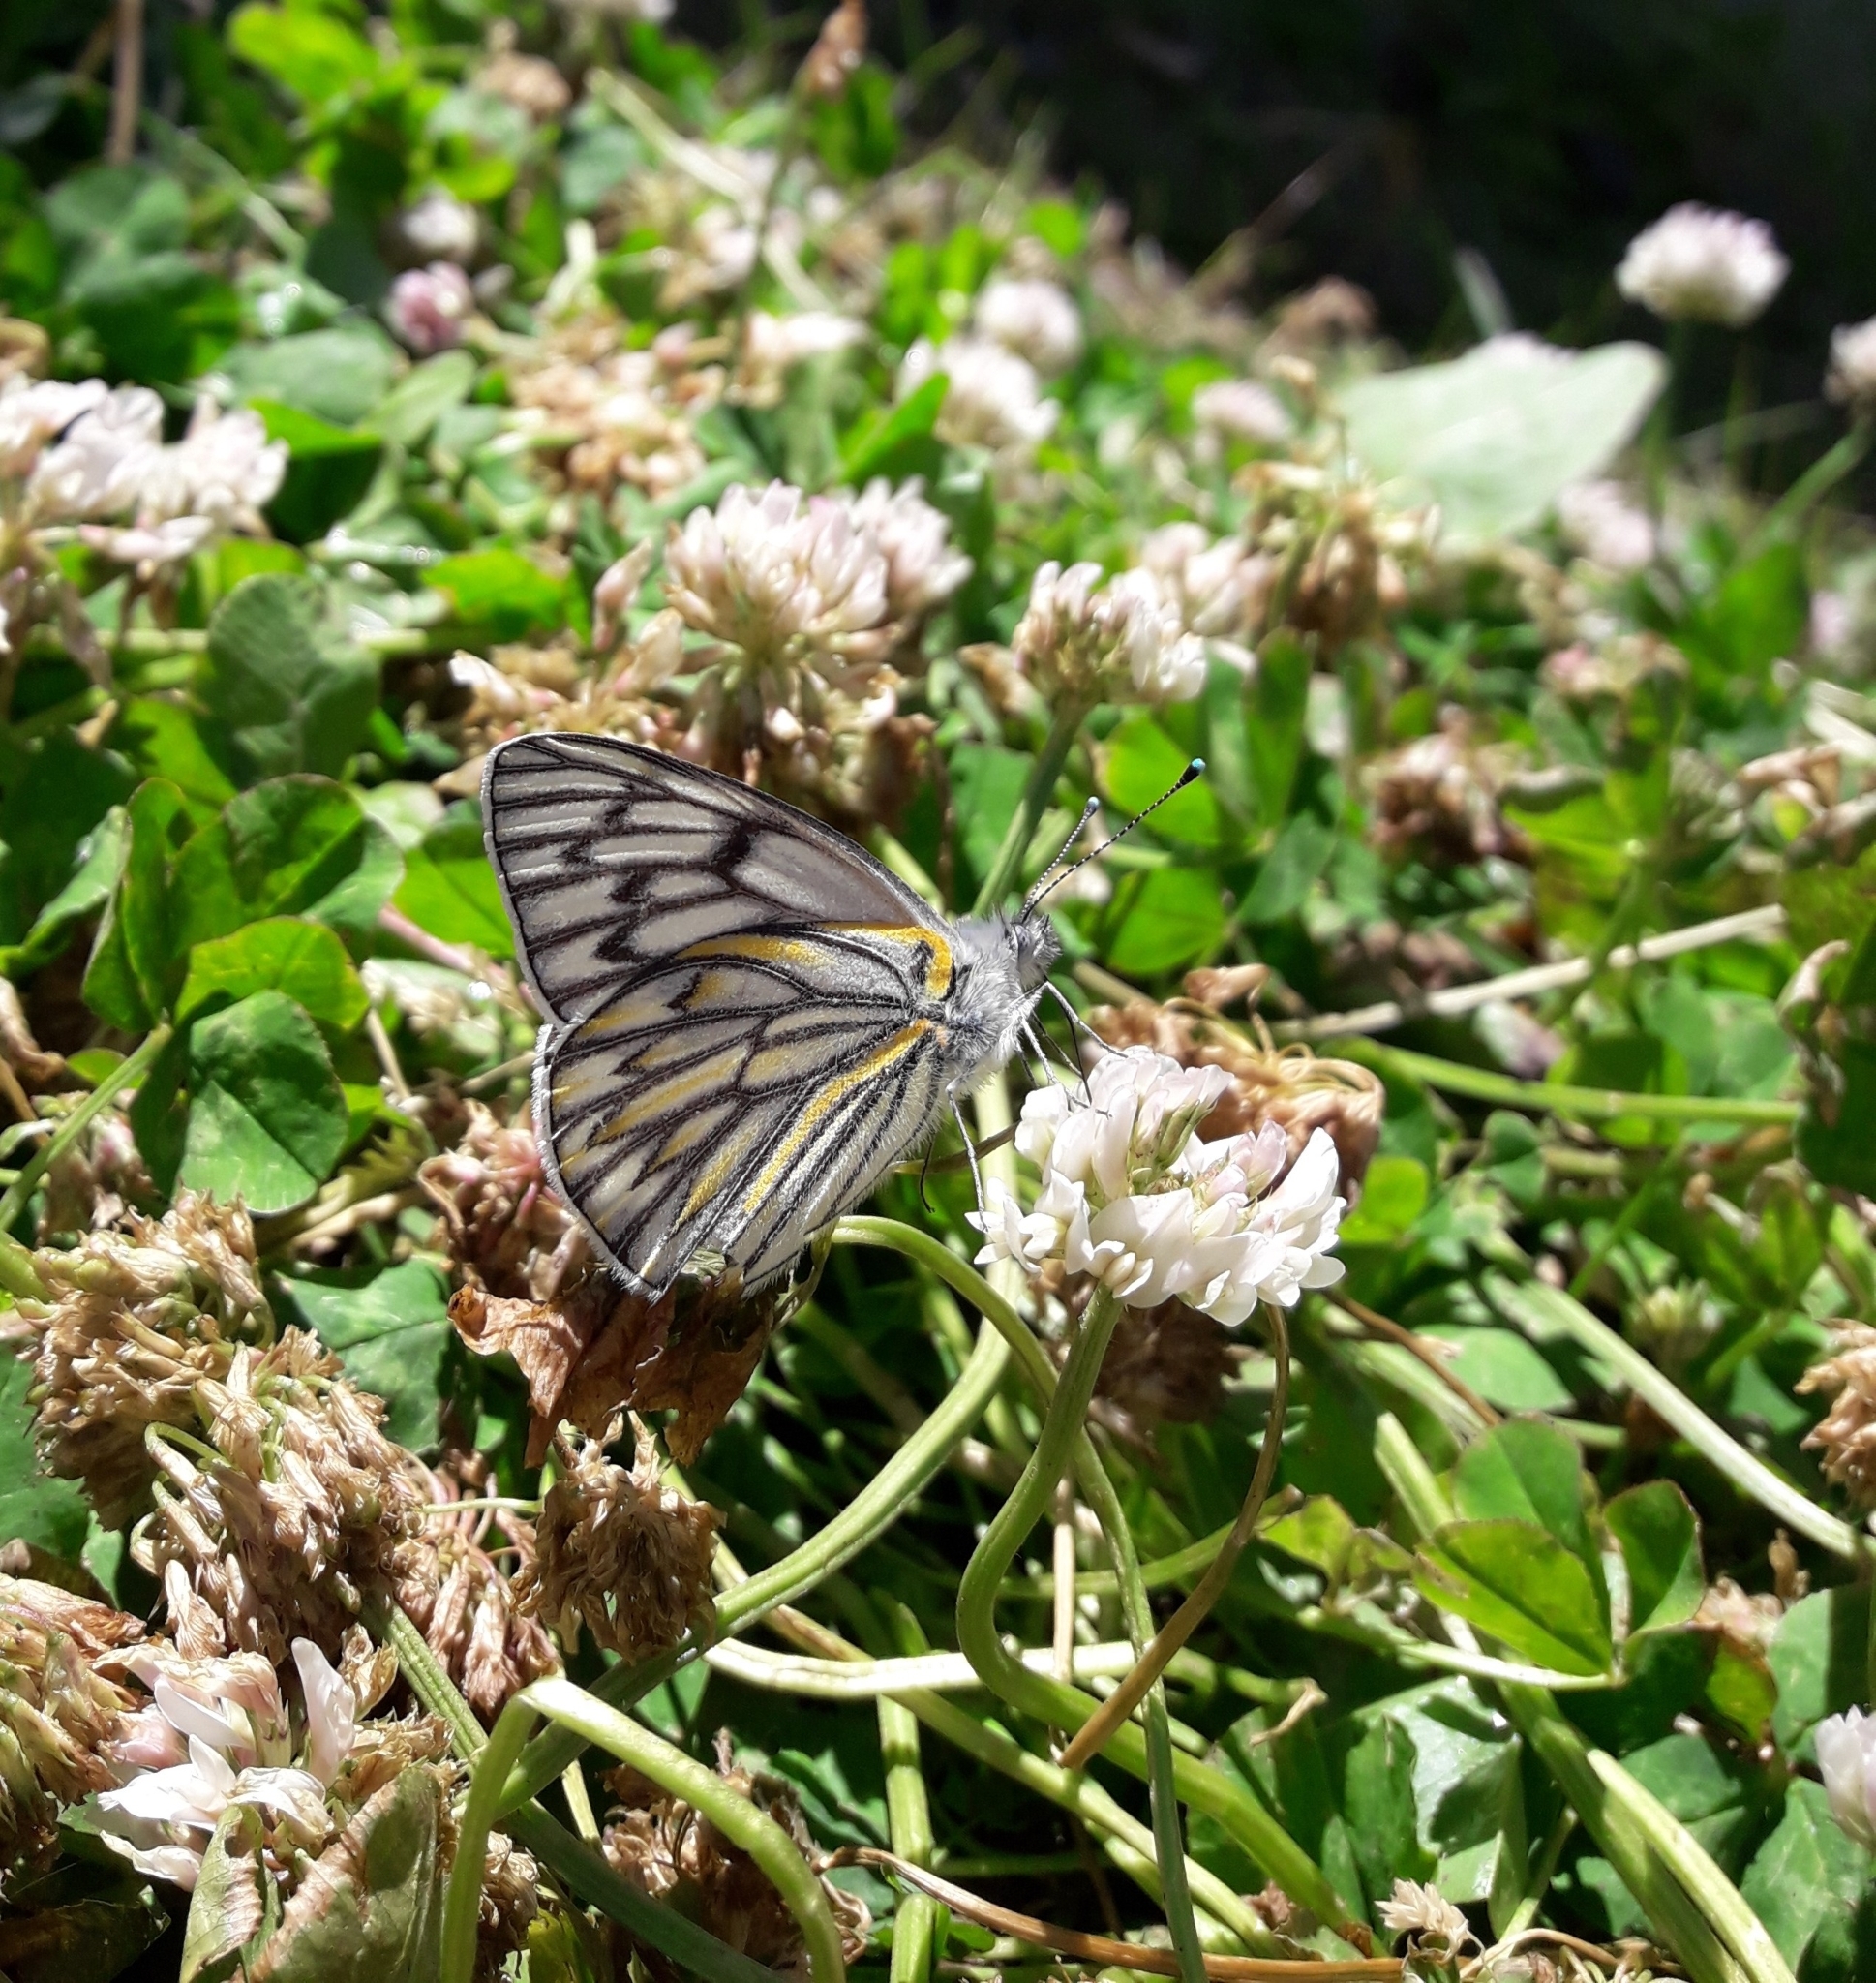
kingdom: Animalia
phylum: Arthropoda
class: Insecta
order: Lepidoptera
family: Pieridae
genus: Tatochila
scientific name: Tatochila theodice
